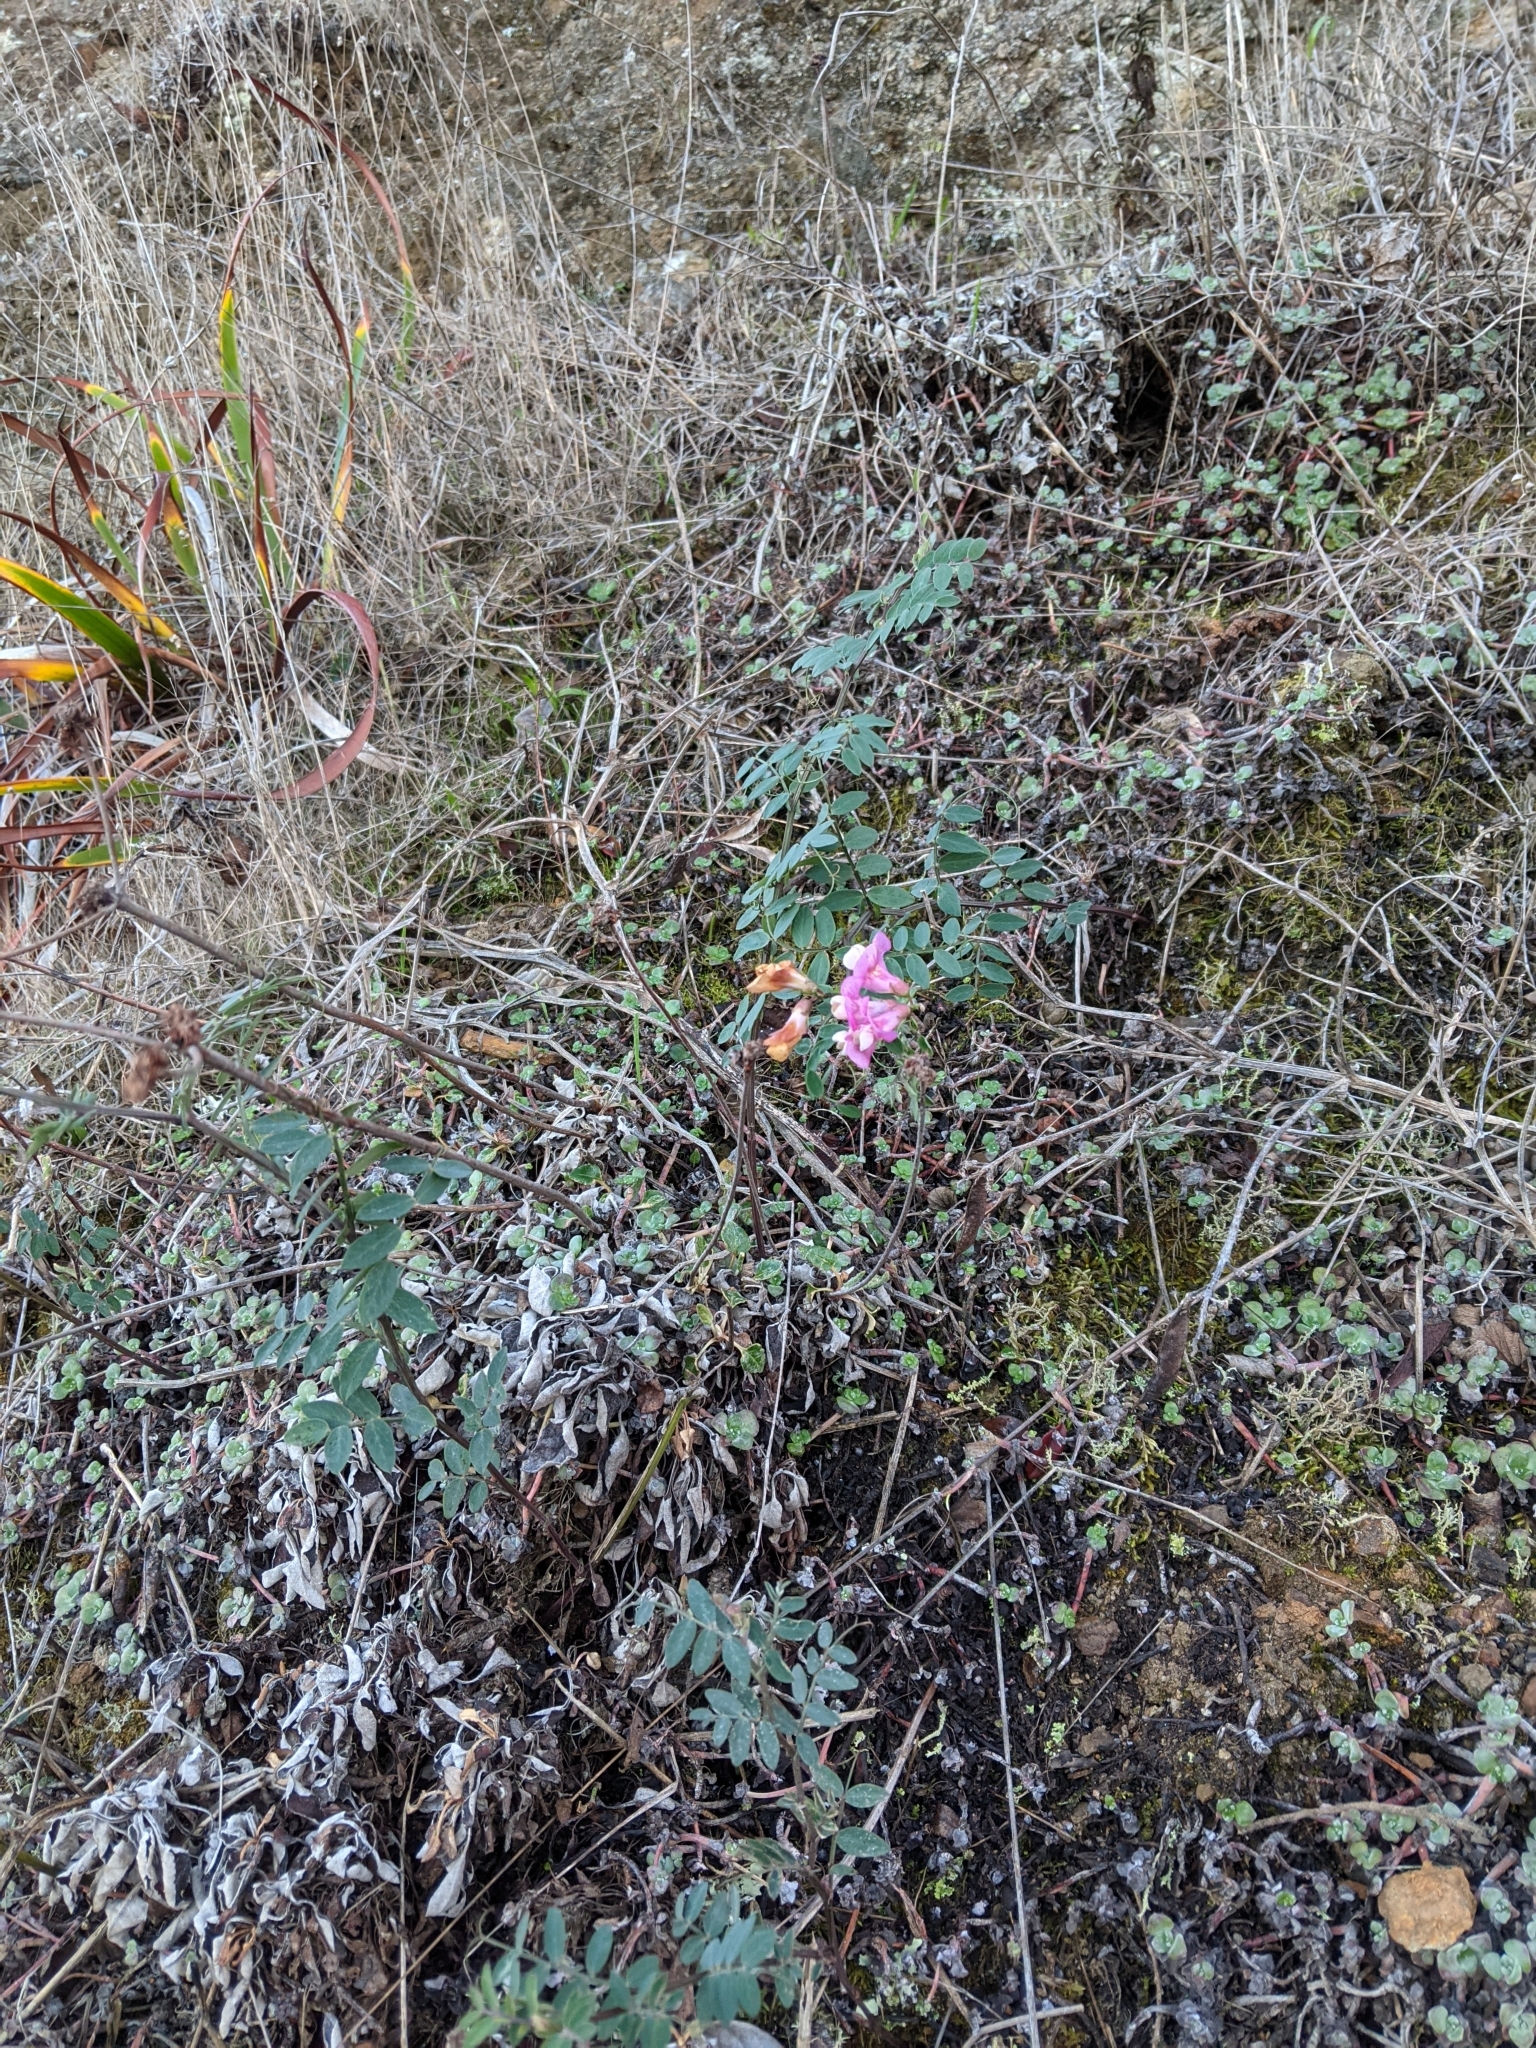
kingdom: Plantae
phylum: Tracheophyta
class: Magnoliopsida
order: Fabales
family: Fabaceae
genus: Lathyrus
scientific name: Lathyrus vestitus
